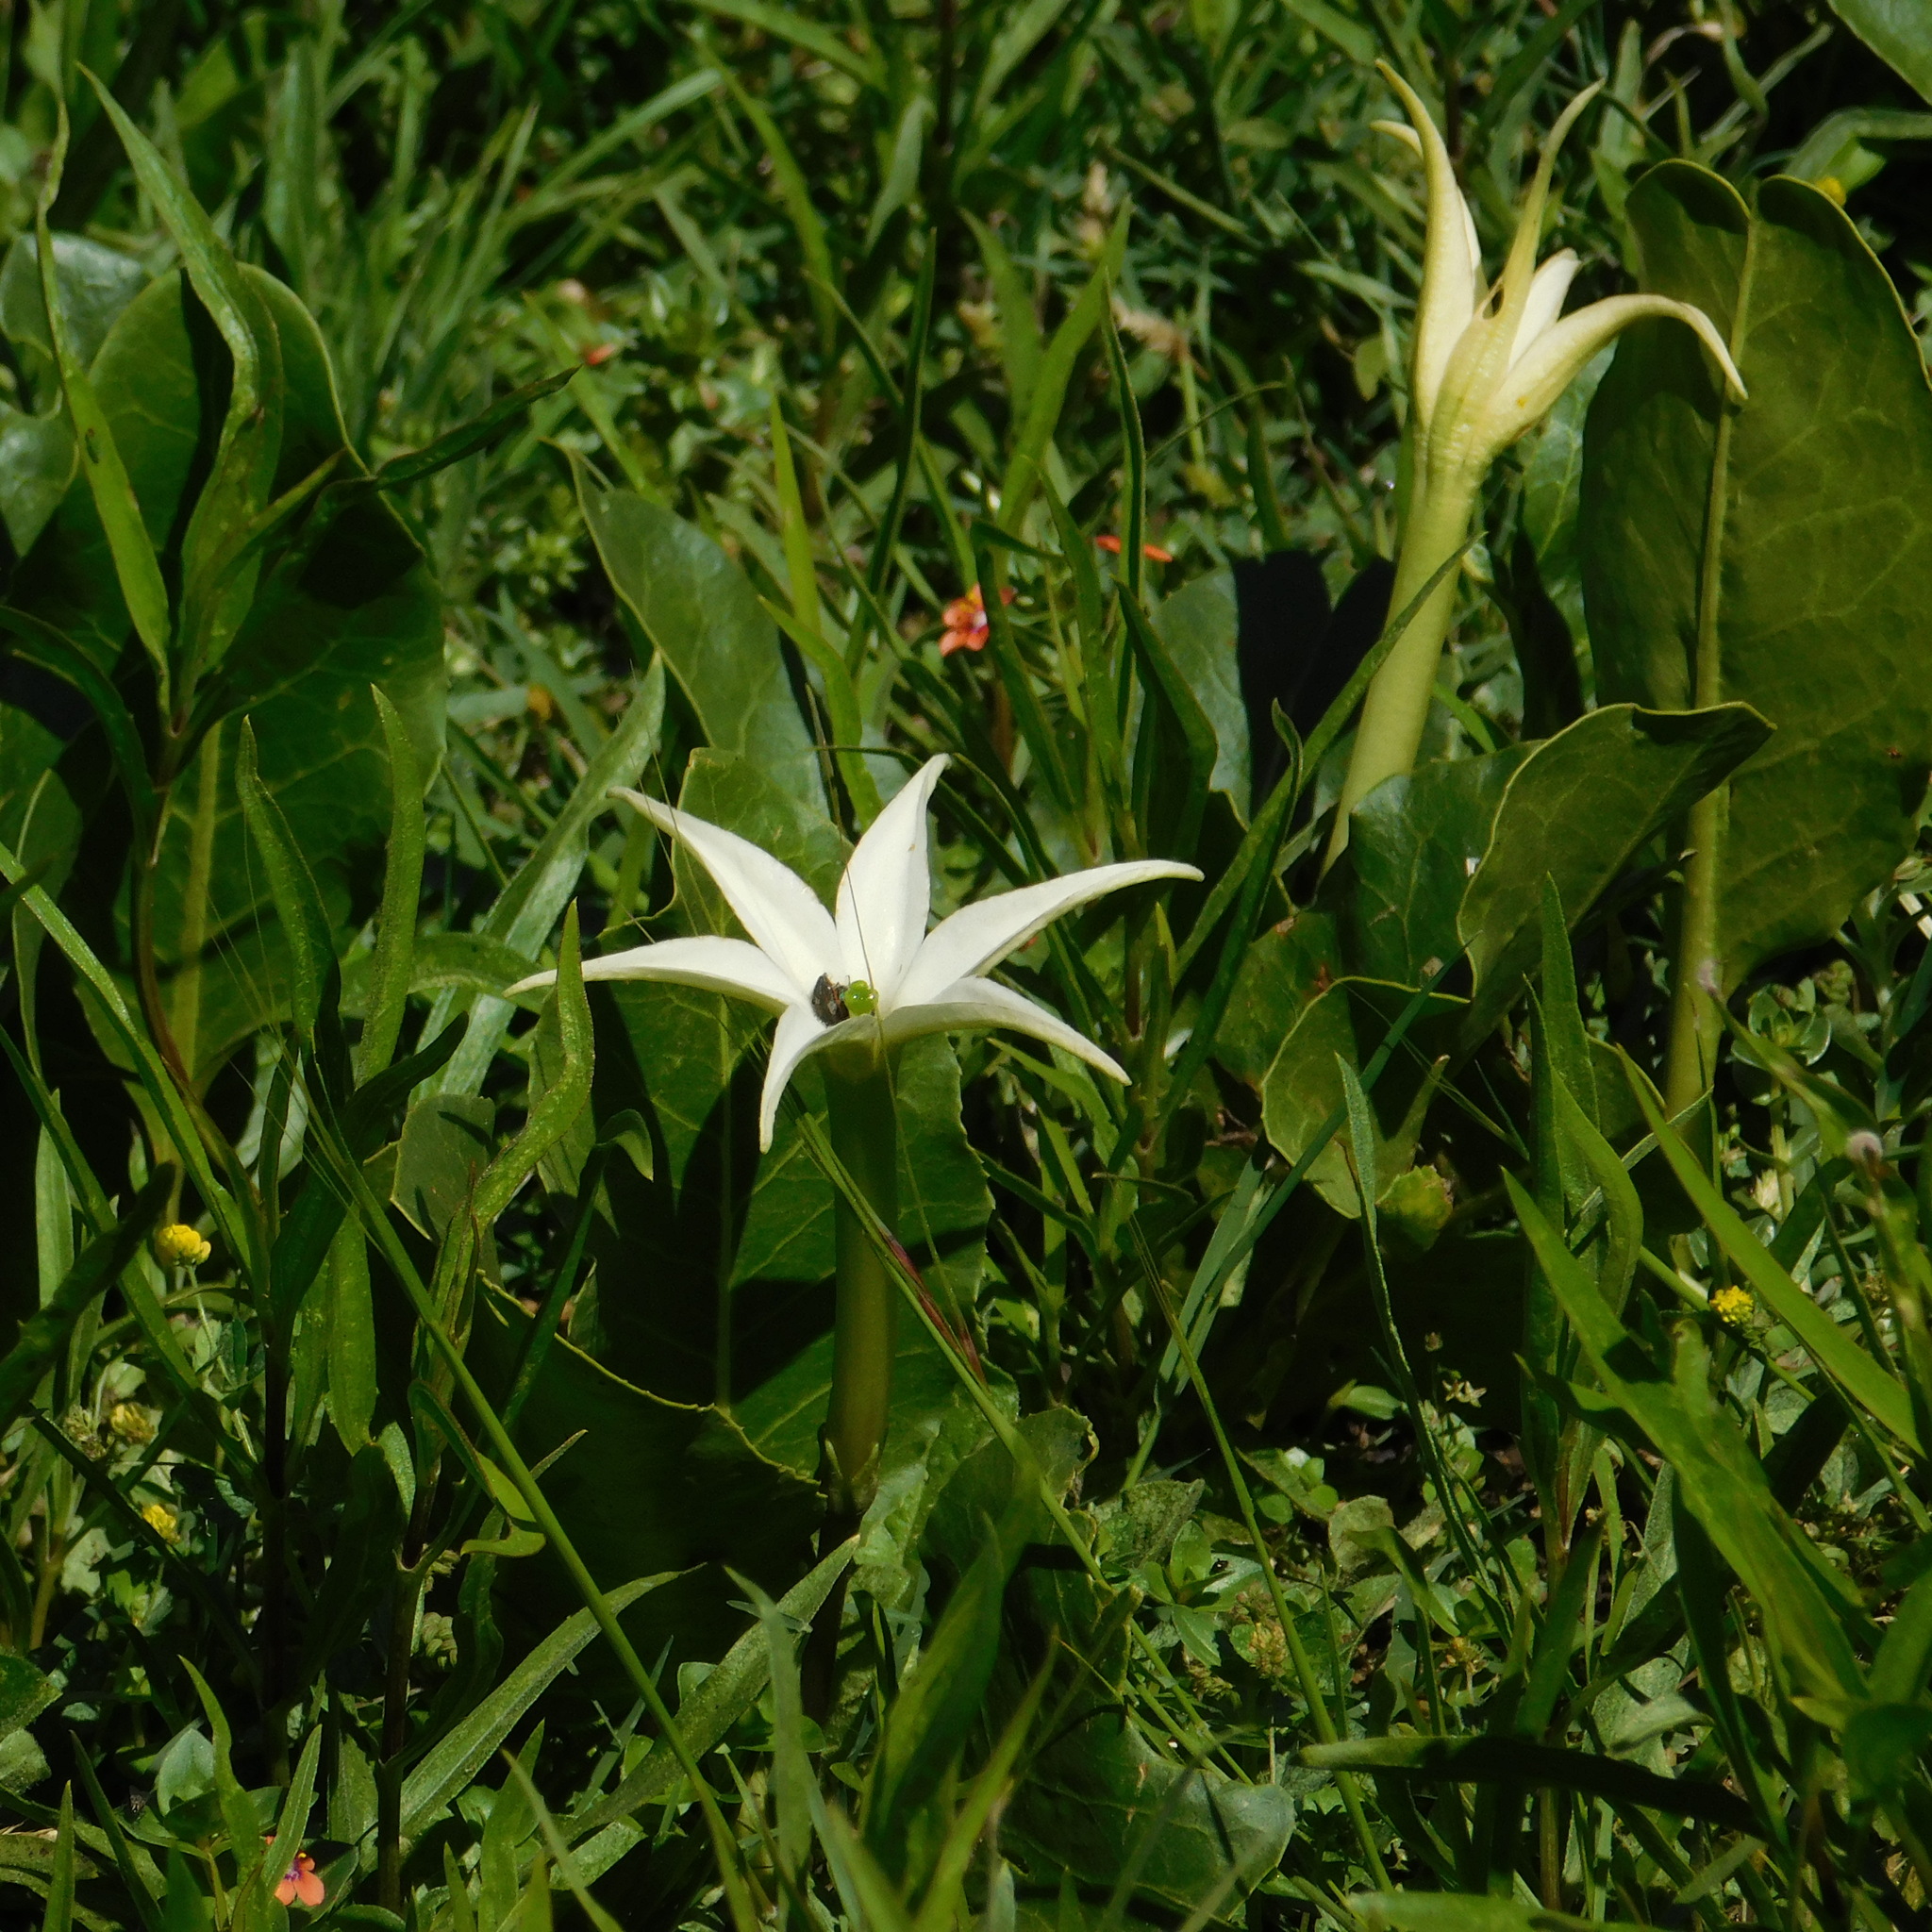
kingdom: Plantae
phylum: Tracheophyta
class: Magnoliopsida
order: Solanales
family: Solanaceae
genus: Jaborosa
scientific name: Jaborosa integrifolia
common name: Springblossom
